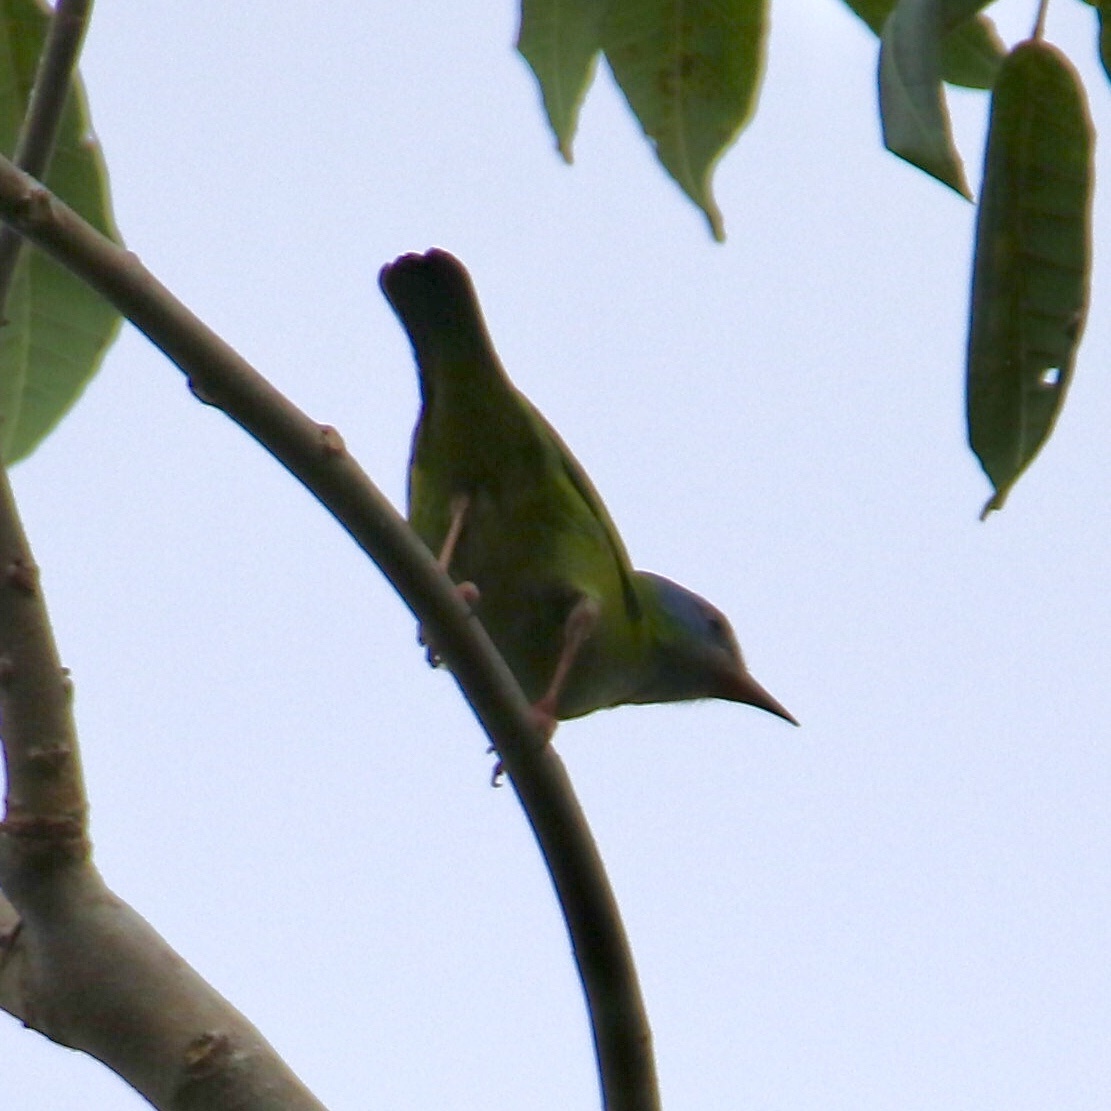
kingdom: Animalia
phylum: Chordata
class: Aves
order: Passeriformes
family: Thraupidae
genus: Dacnis
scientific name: Dacnis cayana
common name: Blue dacnis
